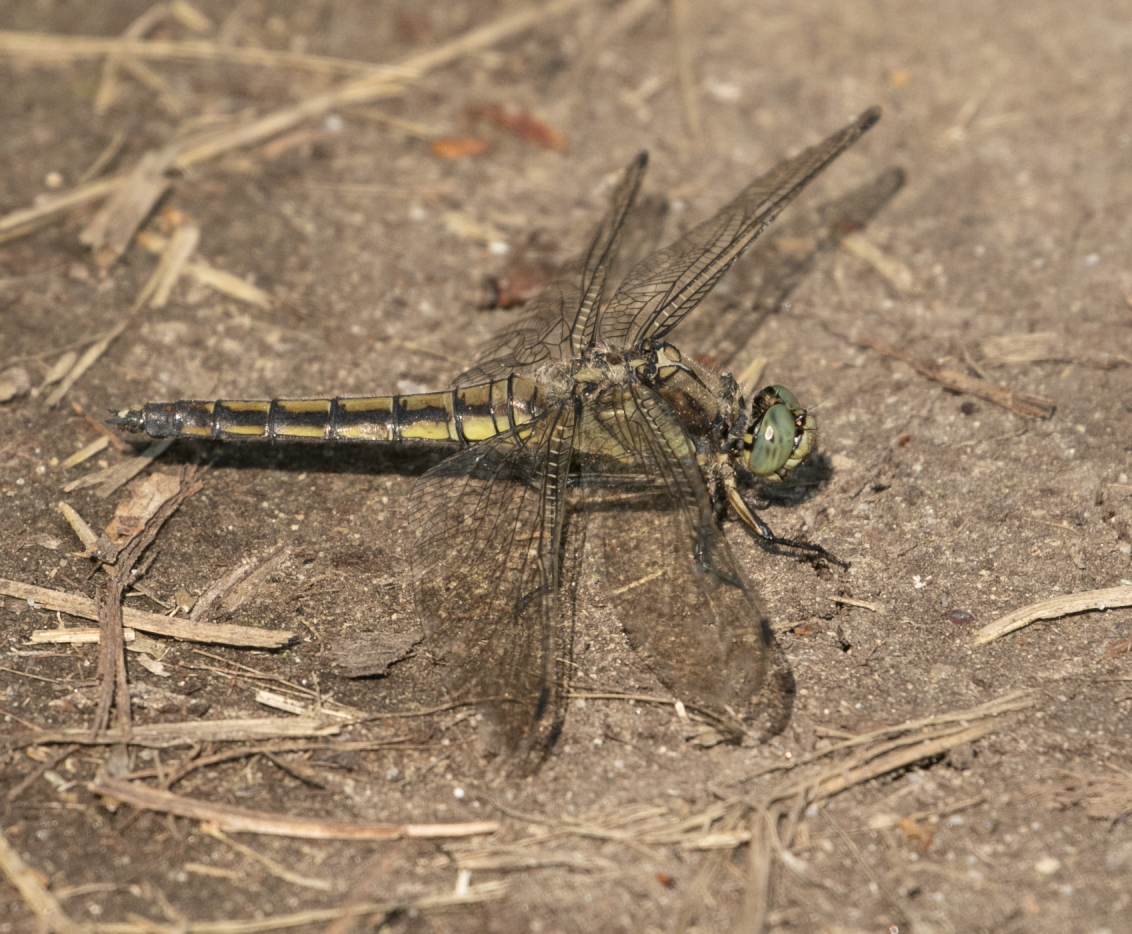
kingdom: Animalia
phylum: Arthropoda
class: Insecta
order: Odonata
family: Libellulidae
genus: Orthetrum
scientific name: Orthetrum cancellatum
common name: Black-tailed skimmer
